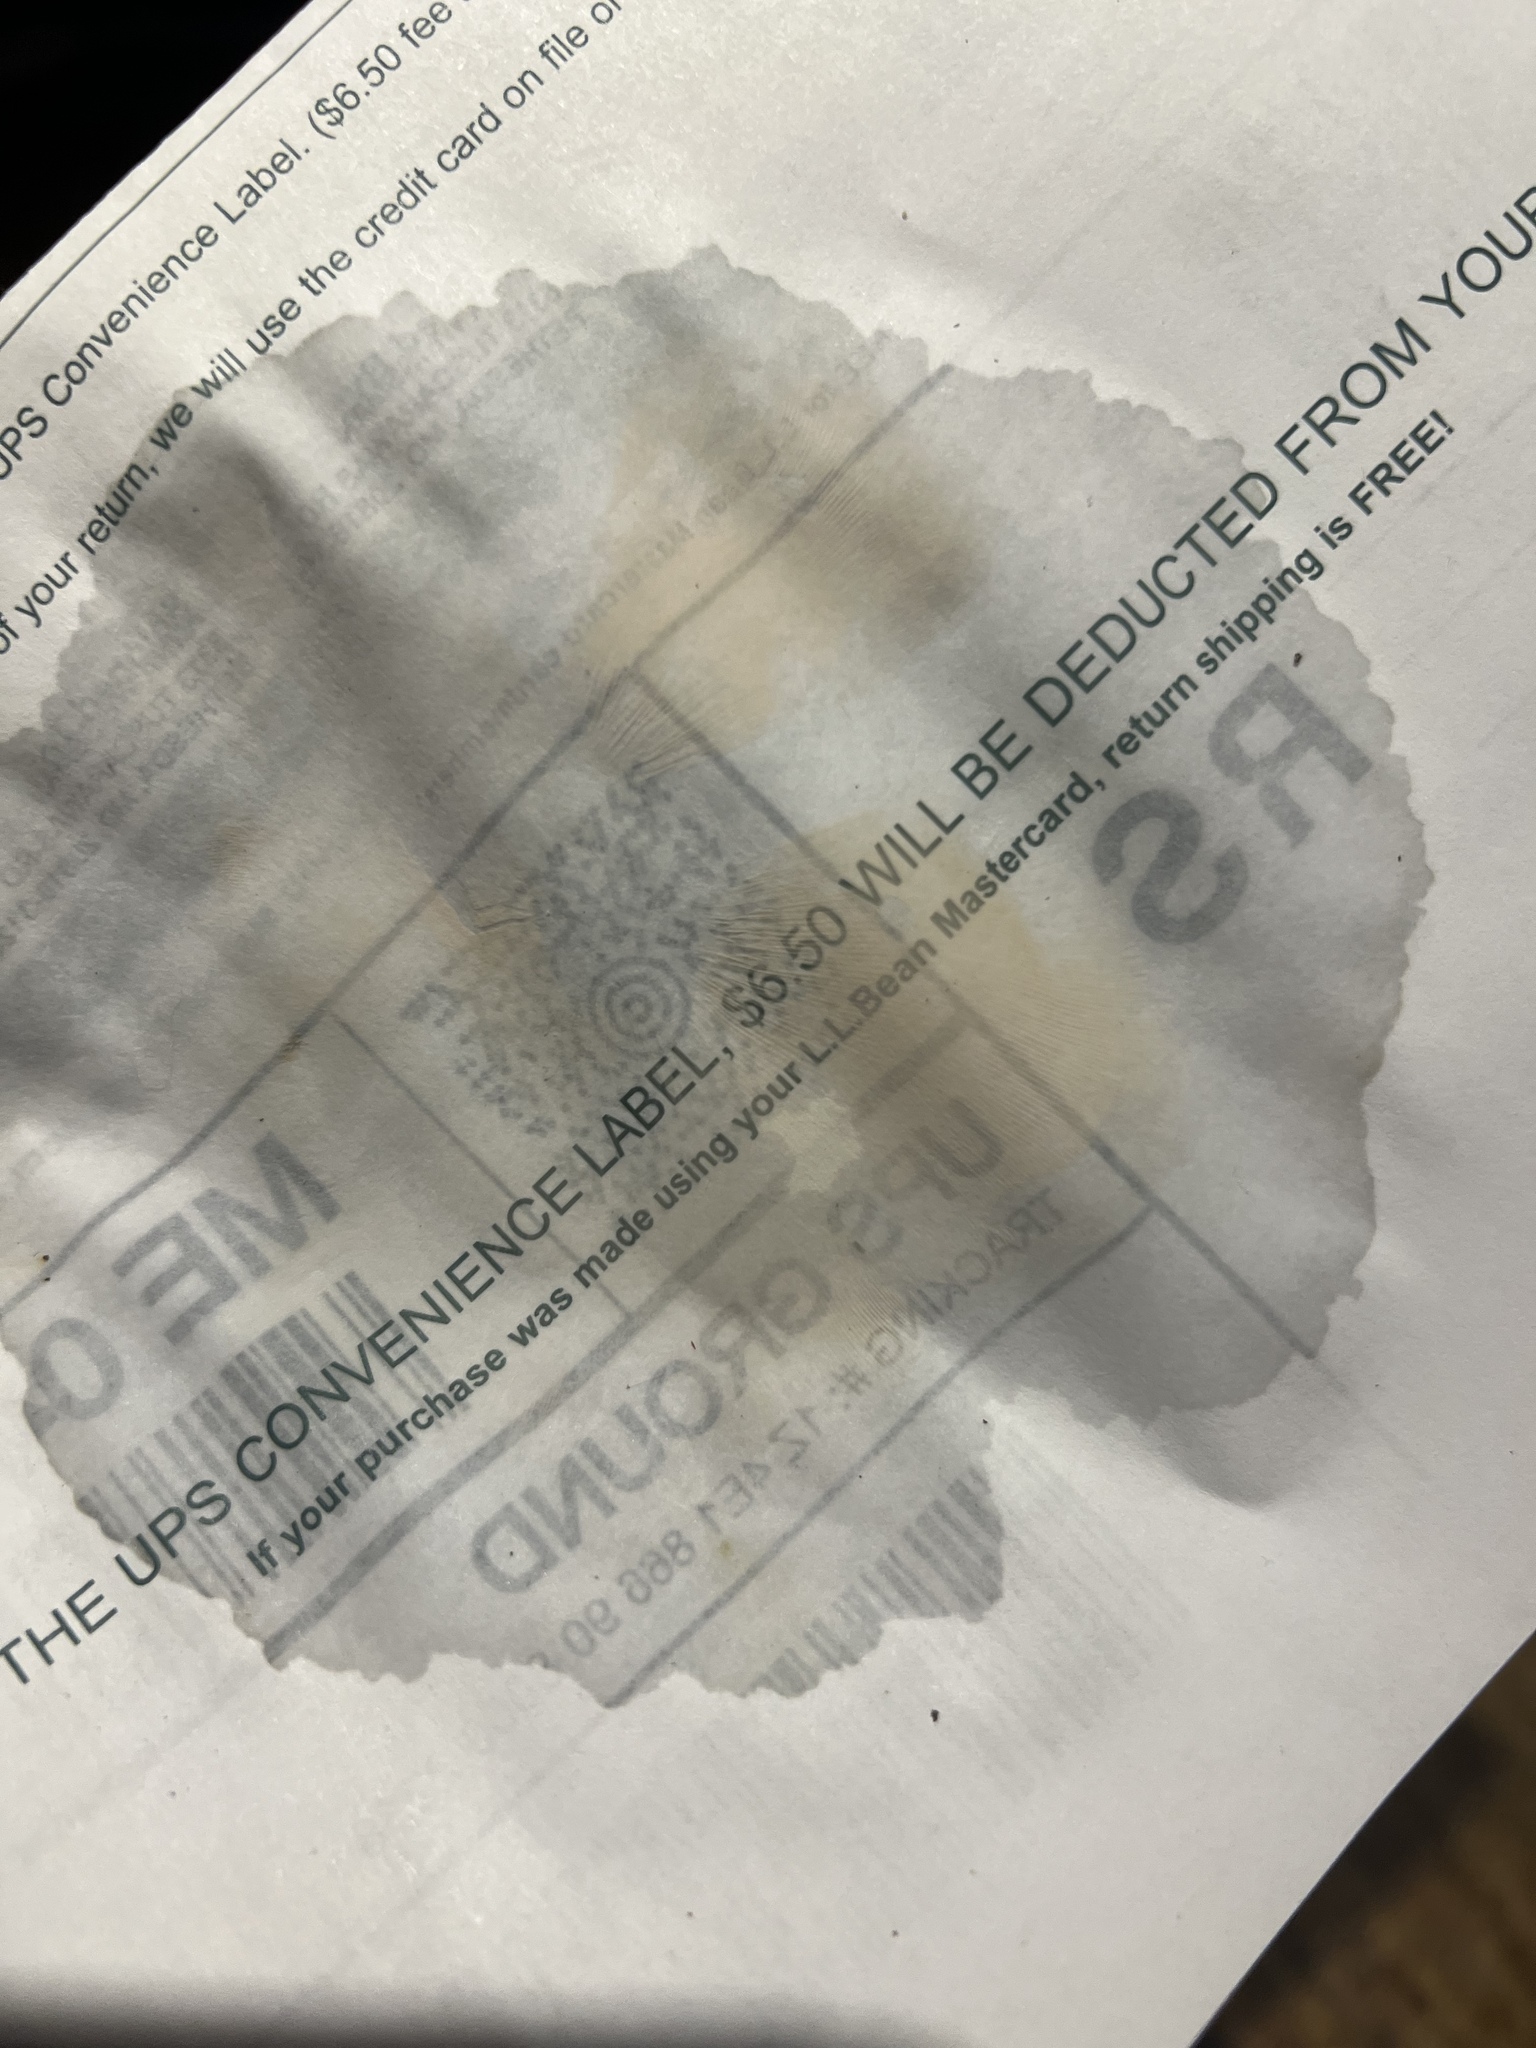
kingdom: Fungi
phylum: Basidiomycota
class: Agaricomycetes
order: Agaricales
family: Tricholomataceae
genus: Lepista
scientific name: Lepista subconnexa
